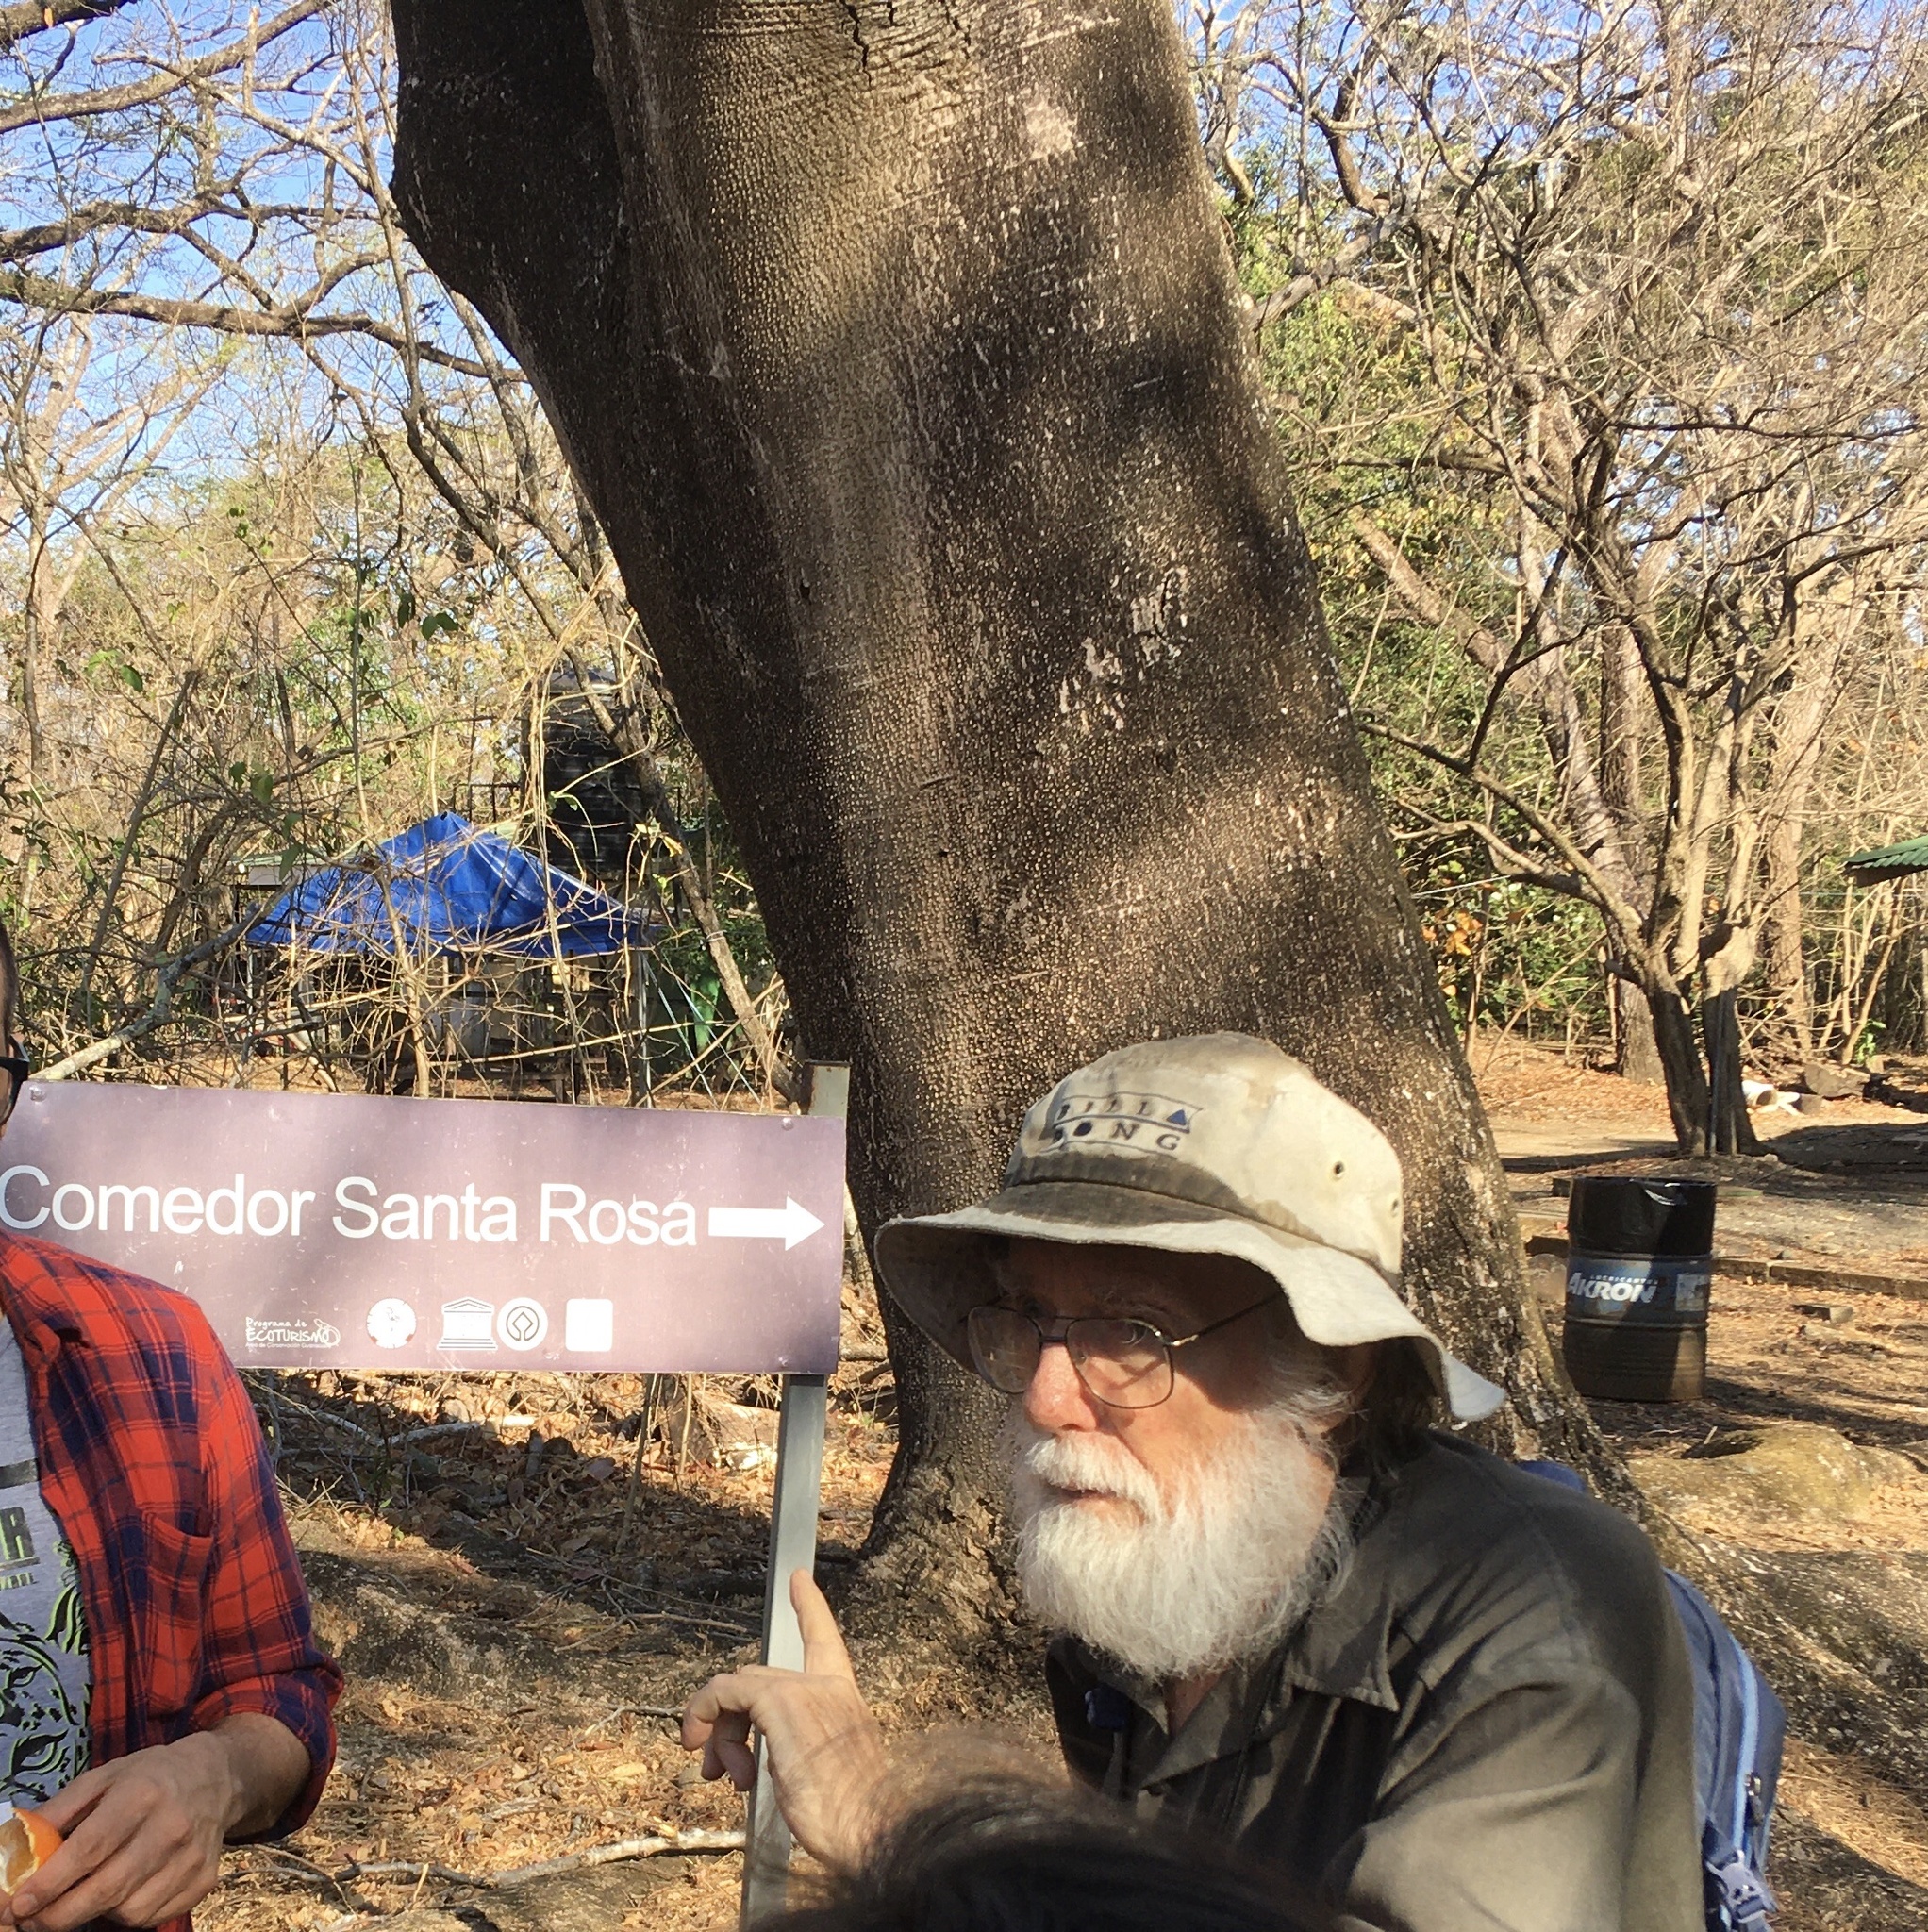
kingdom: Plantae
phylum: Tracheophyta
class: Magnoliopsida
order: Fabales
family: Fabaceae
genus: Enterolobium
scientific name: Enterolobium cyclocarpum
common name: Ear tree
